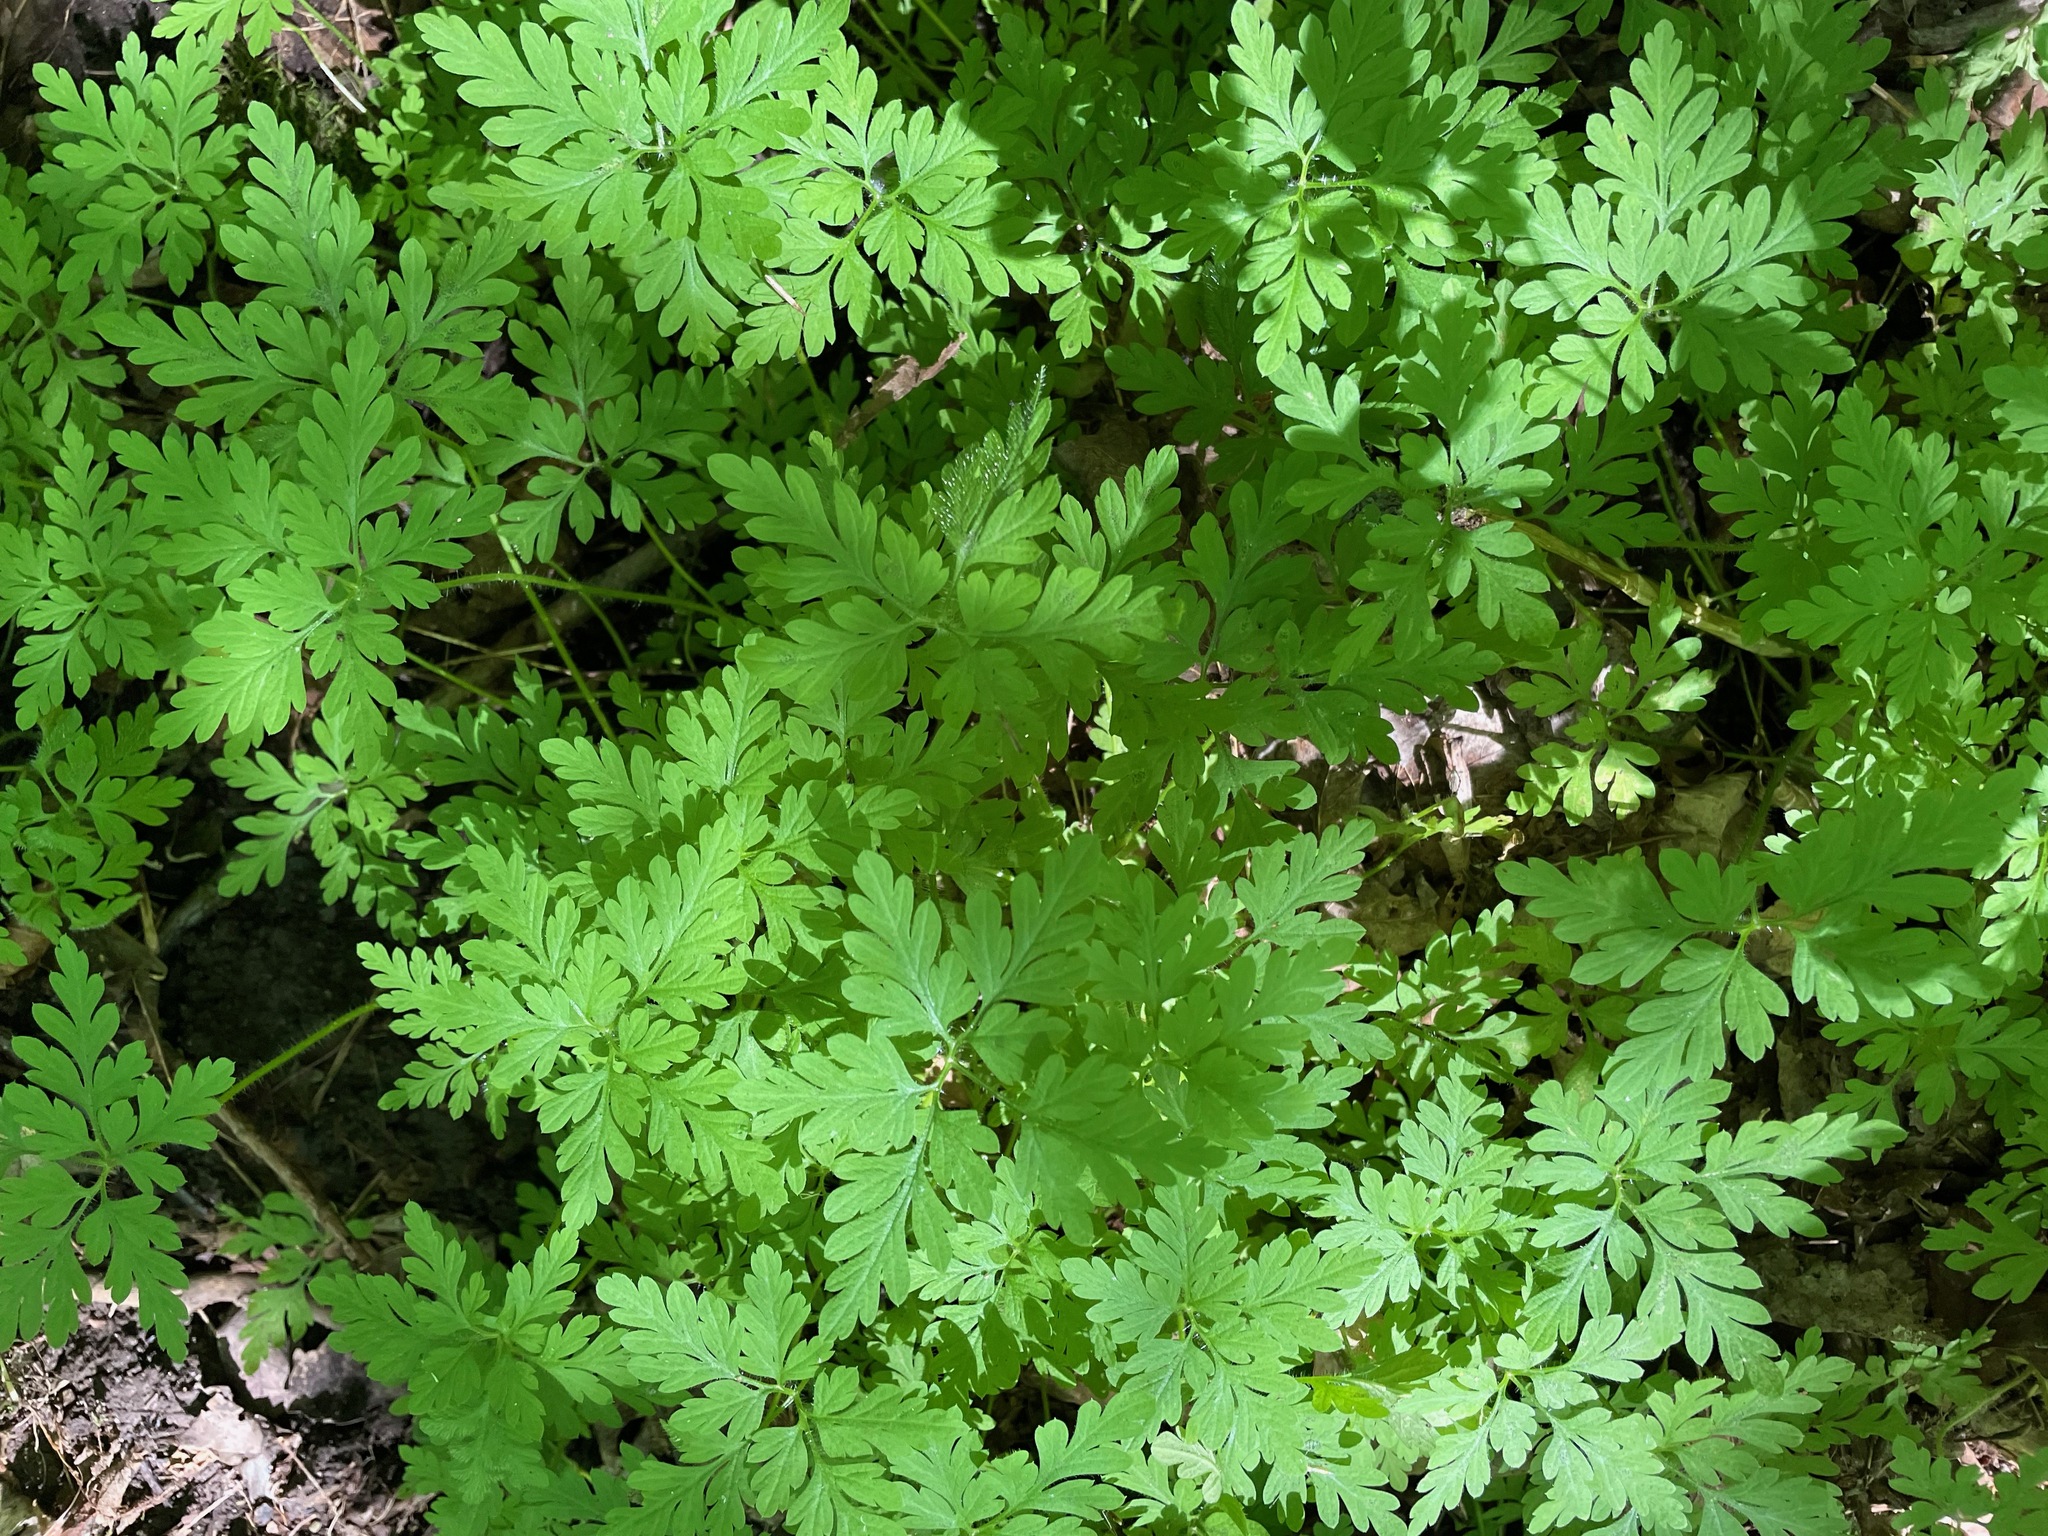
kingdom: Plantae
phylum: Tracheophyta
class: Magnoliopsida
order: Geraniales
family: Geraniaceae
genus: Geranium
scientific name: Geranium robertianum
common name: Herb-robert
